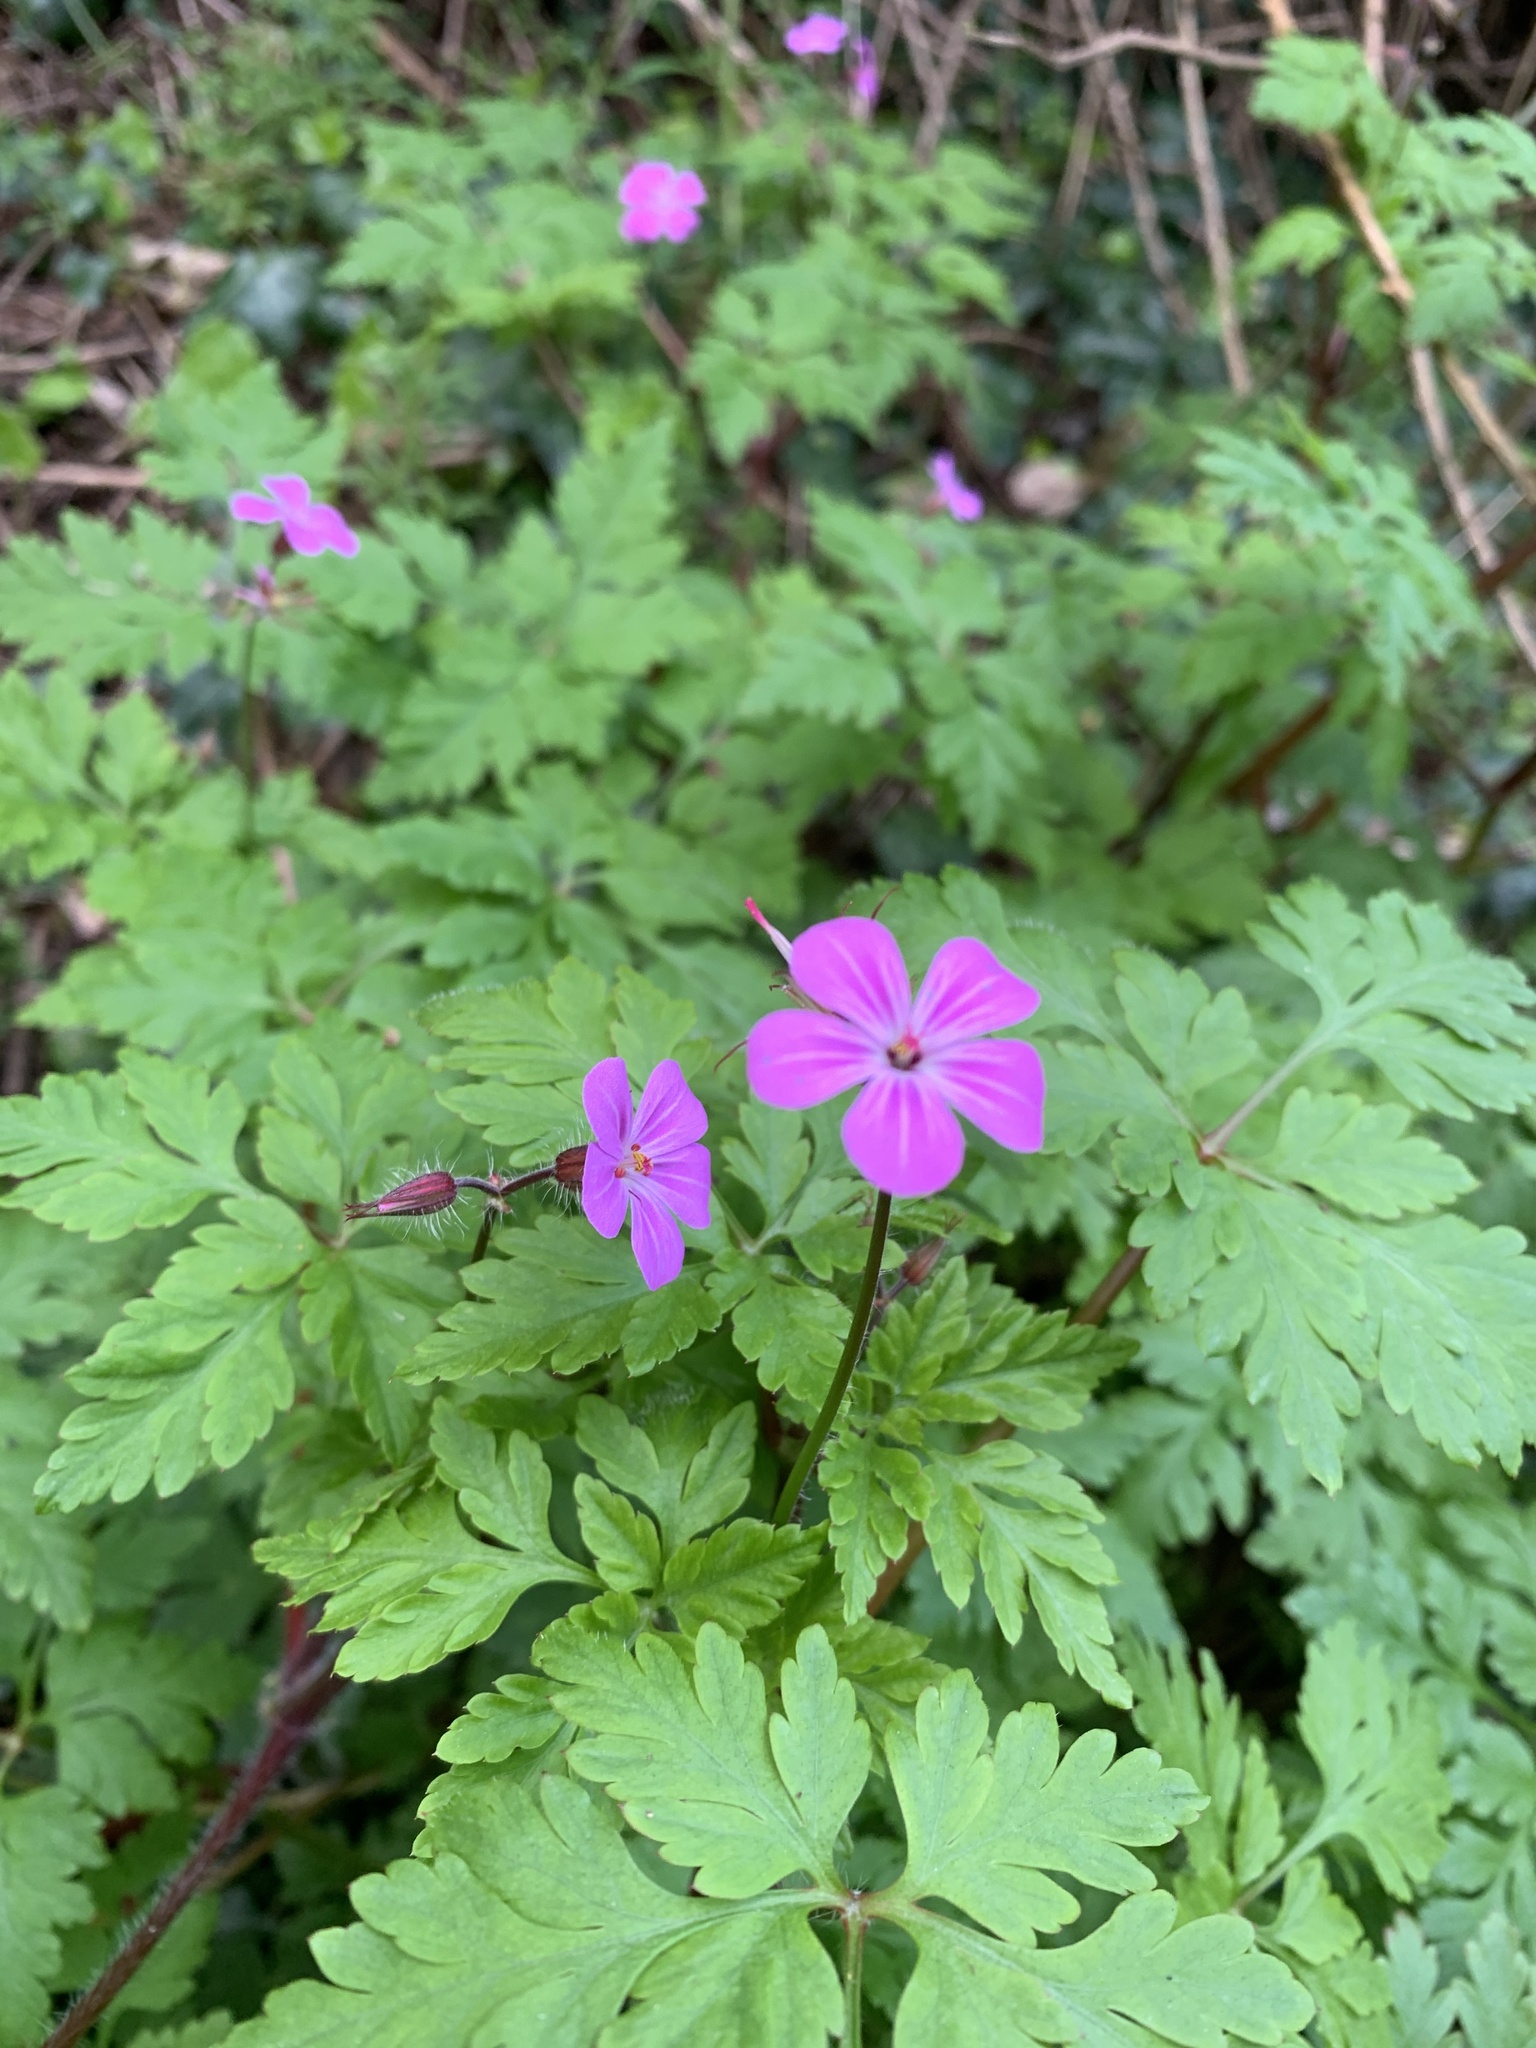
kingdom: Plantae
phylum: Tracheophyta
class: Magnoliopsida
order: Geraniales
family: Geraniaceae
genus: Geranium
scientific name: Geranium robertianum
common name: Herb-robert
